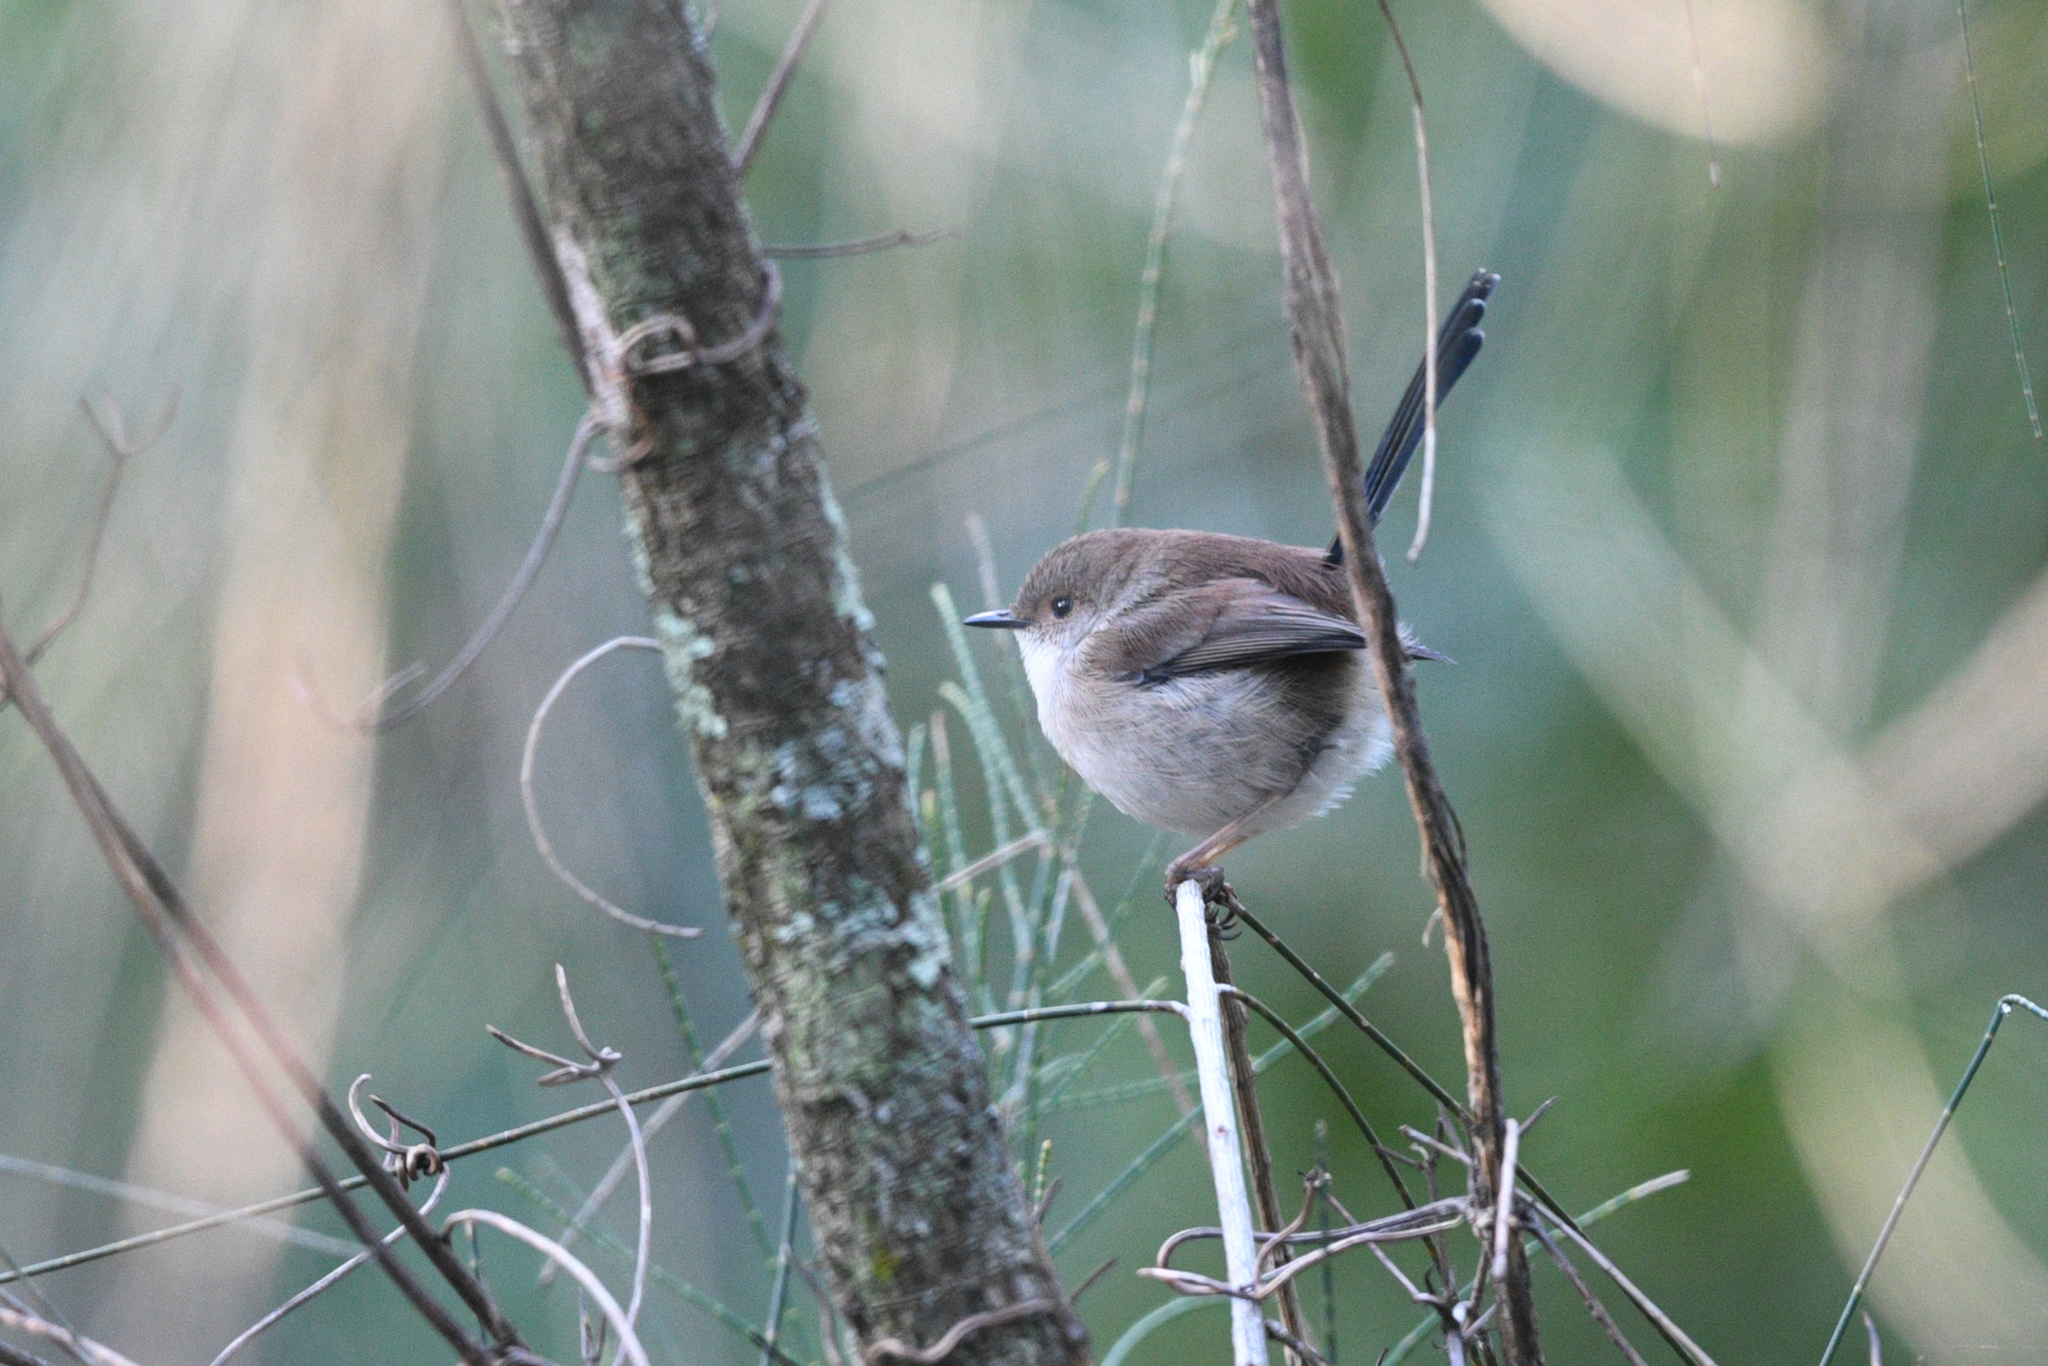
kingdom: Animalia
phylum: Chordata
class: Aves
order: Passeriformes
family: Maluridae
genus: Malurus
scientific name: Malurus cyaneus
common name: Superb fairywren
